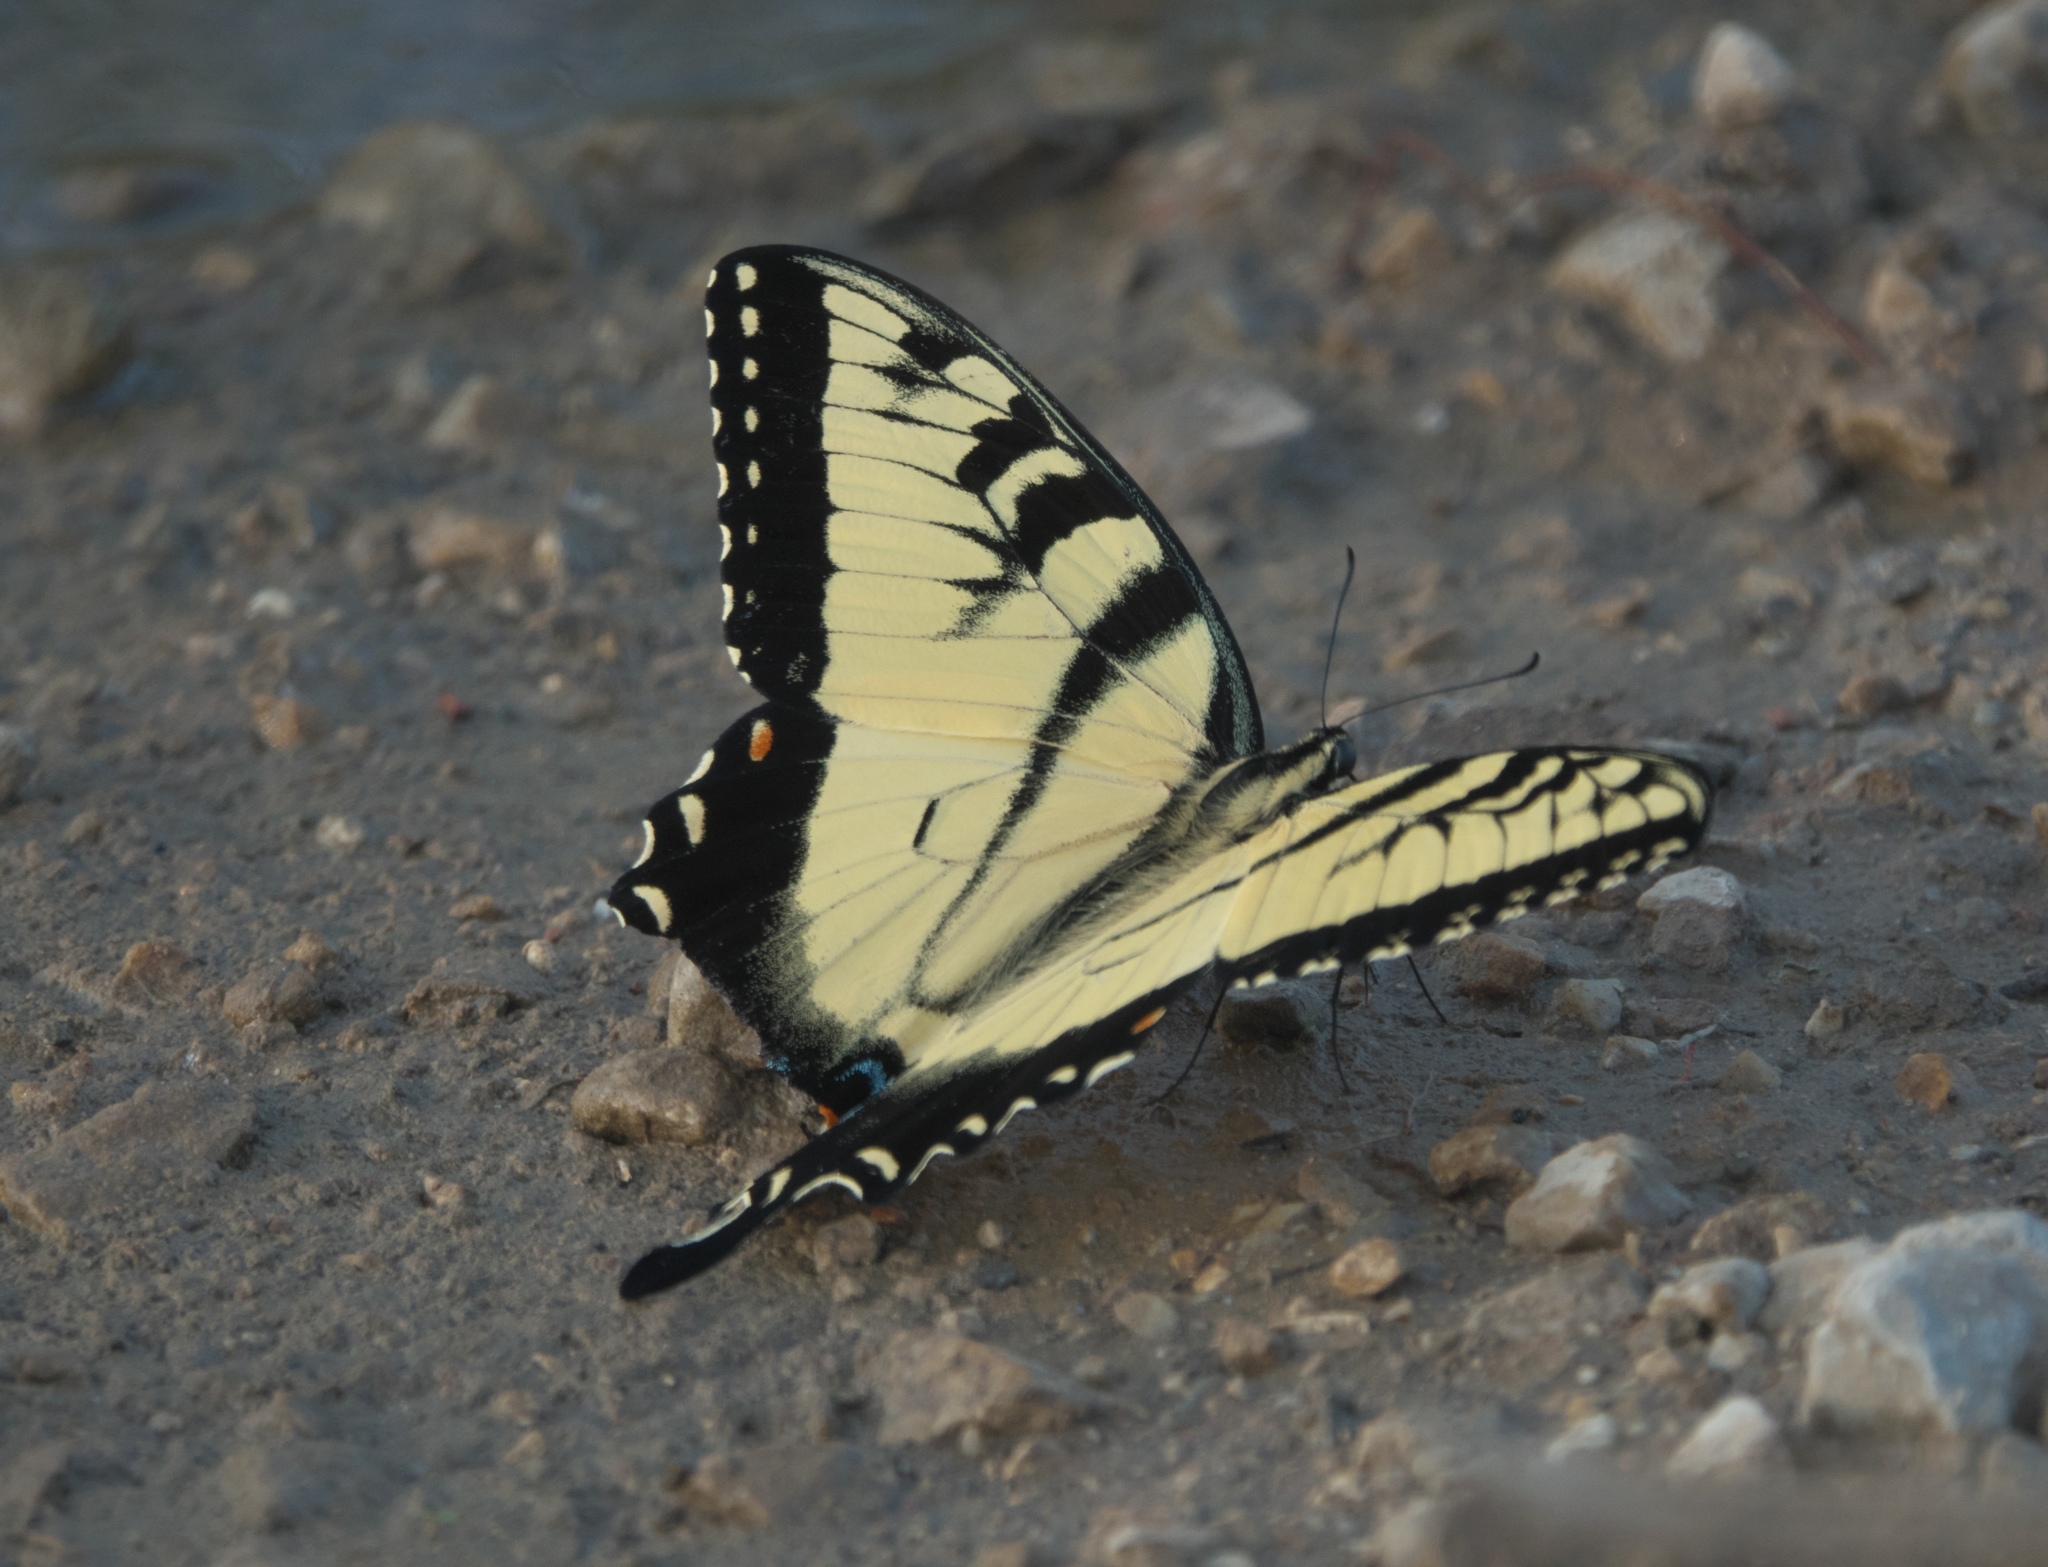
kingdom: Animalia
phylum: Arthropoda
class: Insecta
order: Lepidoptera
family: Papilionidae
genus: Papilio
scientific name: Papilio glaucus
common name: Tiger swallowtail
